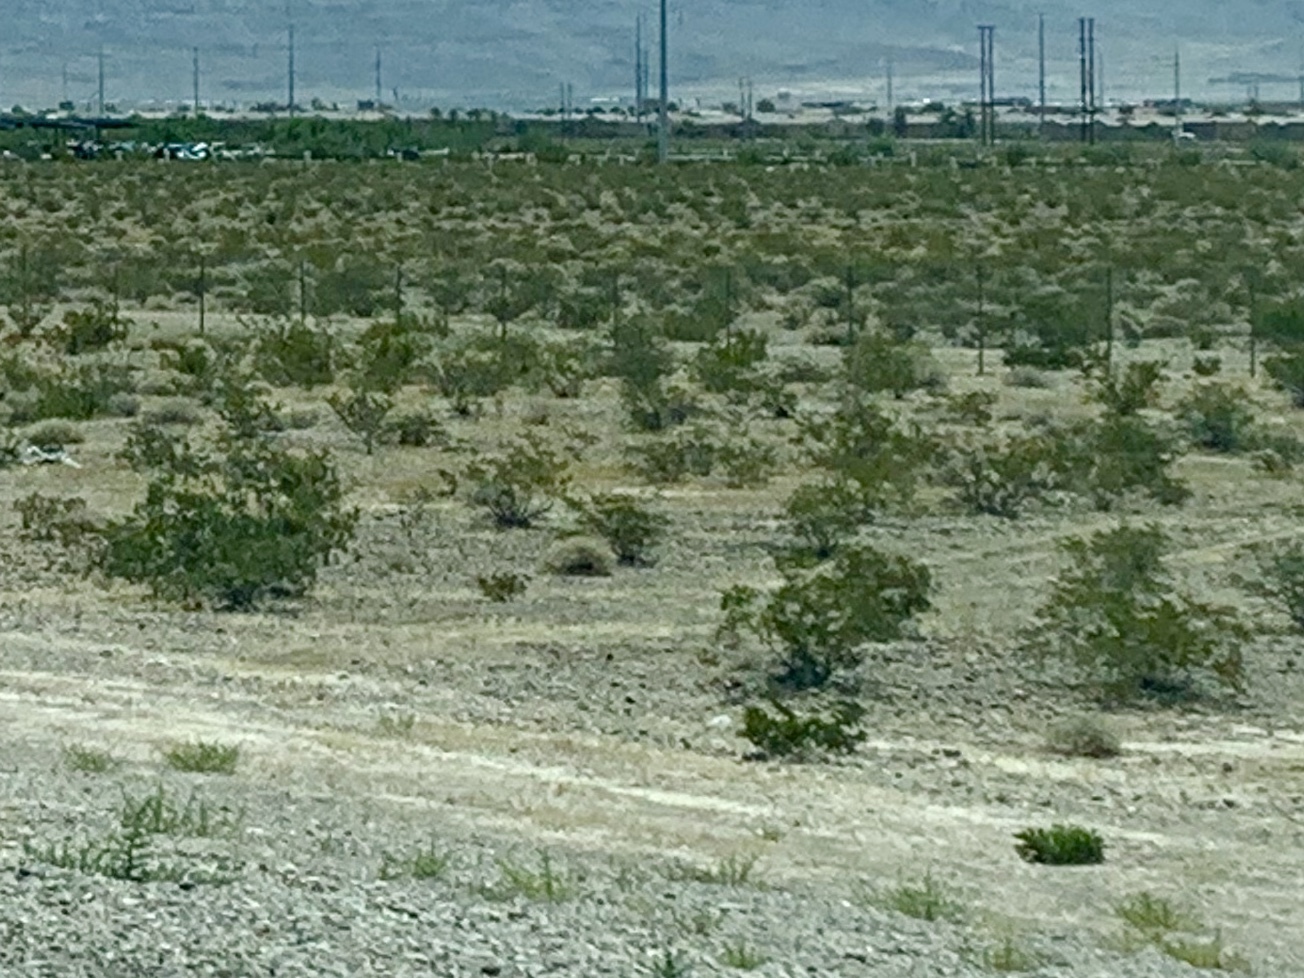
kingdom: Plantae
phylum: Tracheophyta
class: Magnoliopsida
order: Zygophyllales
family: Zygophyllaceae
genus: Larrea
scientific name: Larrea tridentata
